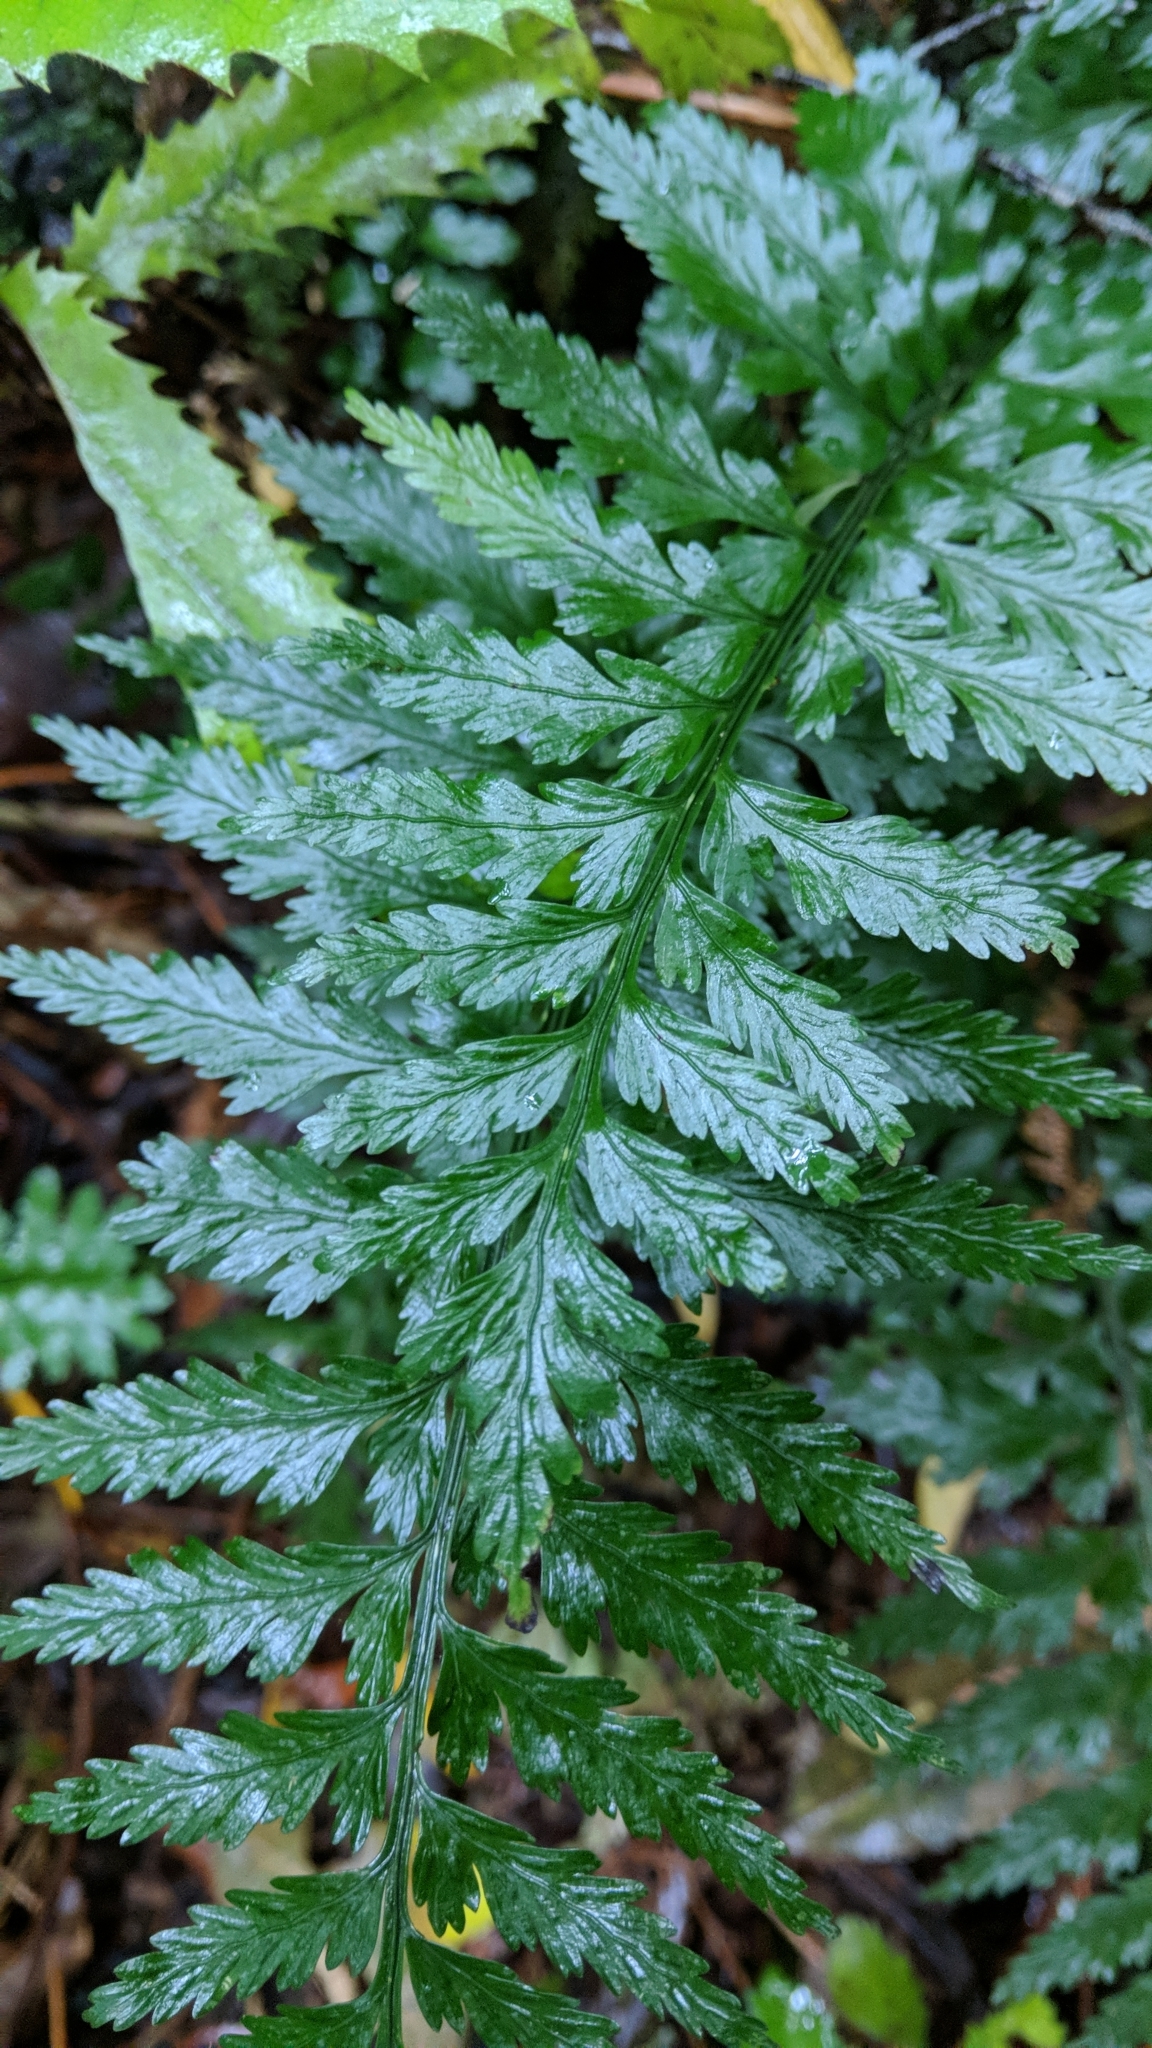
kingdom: Plantae
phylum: Tracheophyta
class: Polypodiopsida
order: Polypodiales
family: Aspleniaceae
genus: Asplenium
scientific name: Asplenium lamprophyllum
